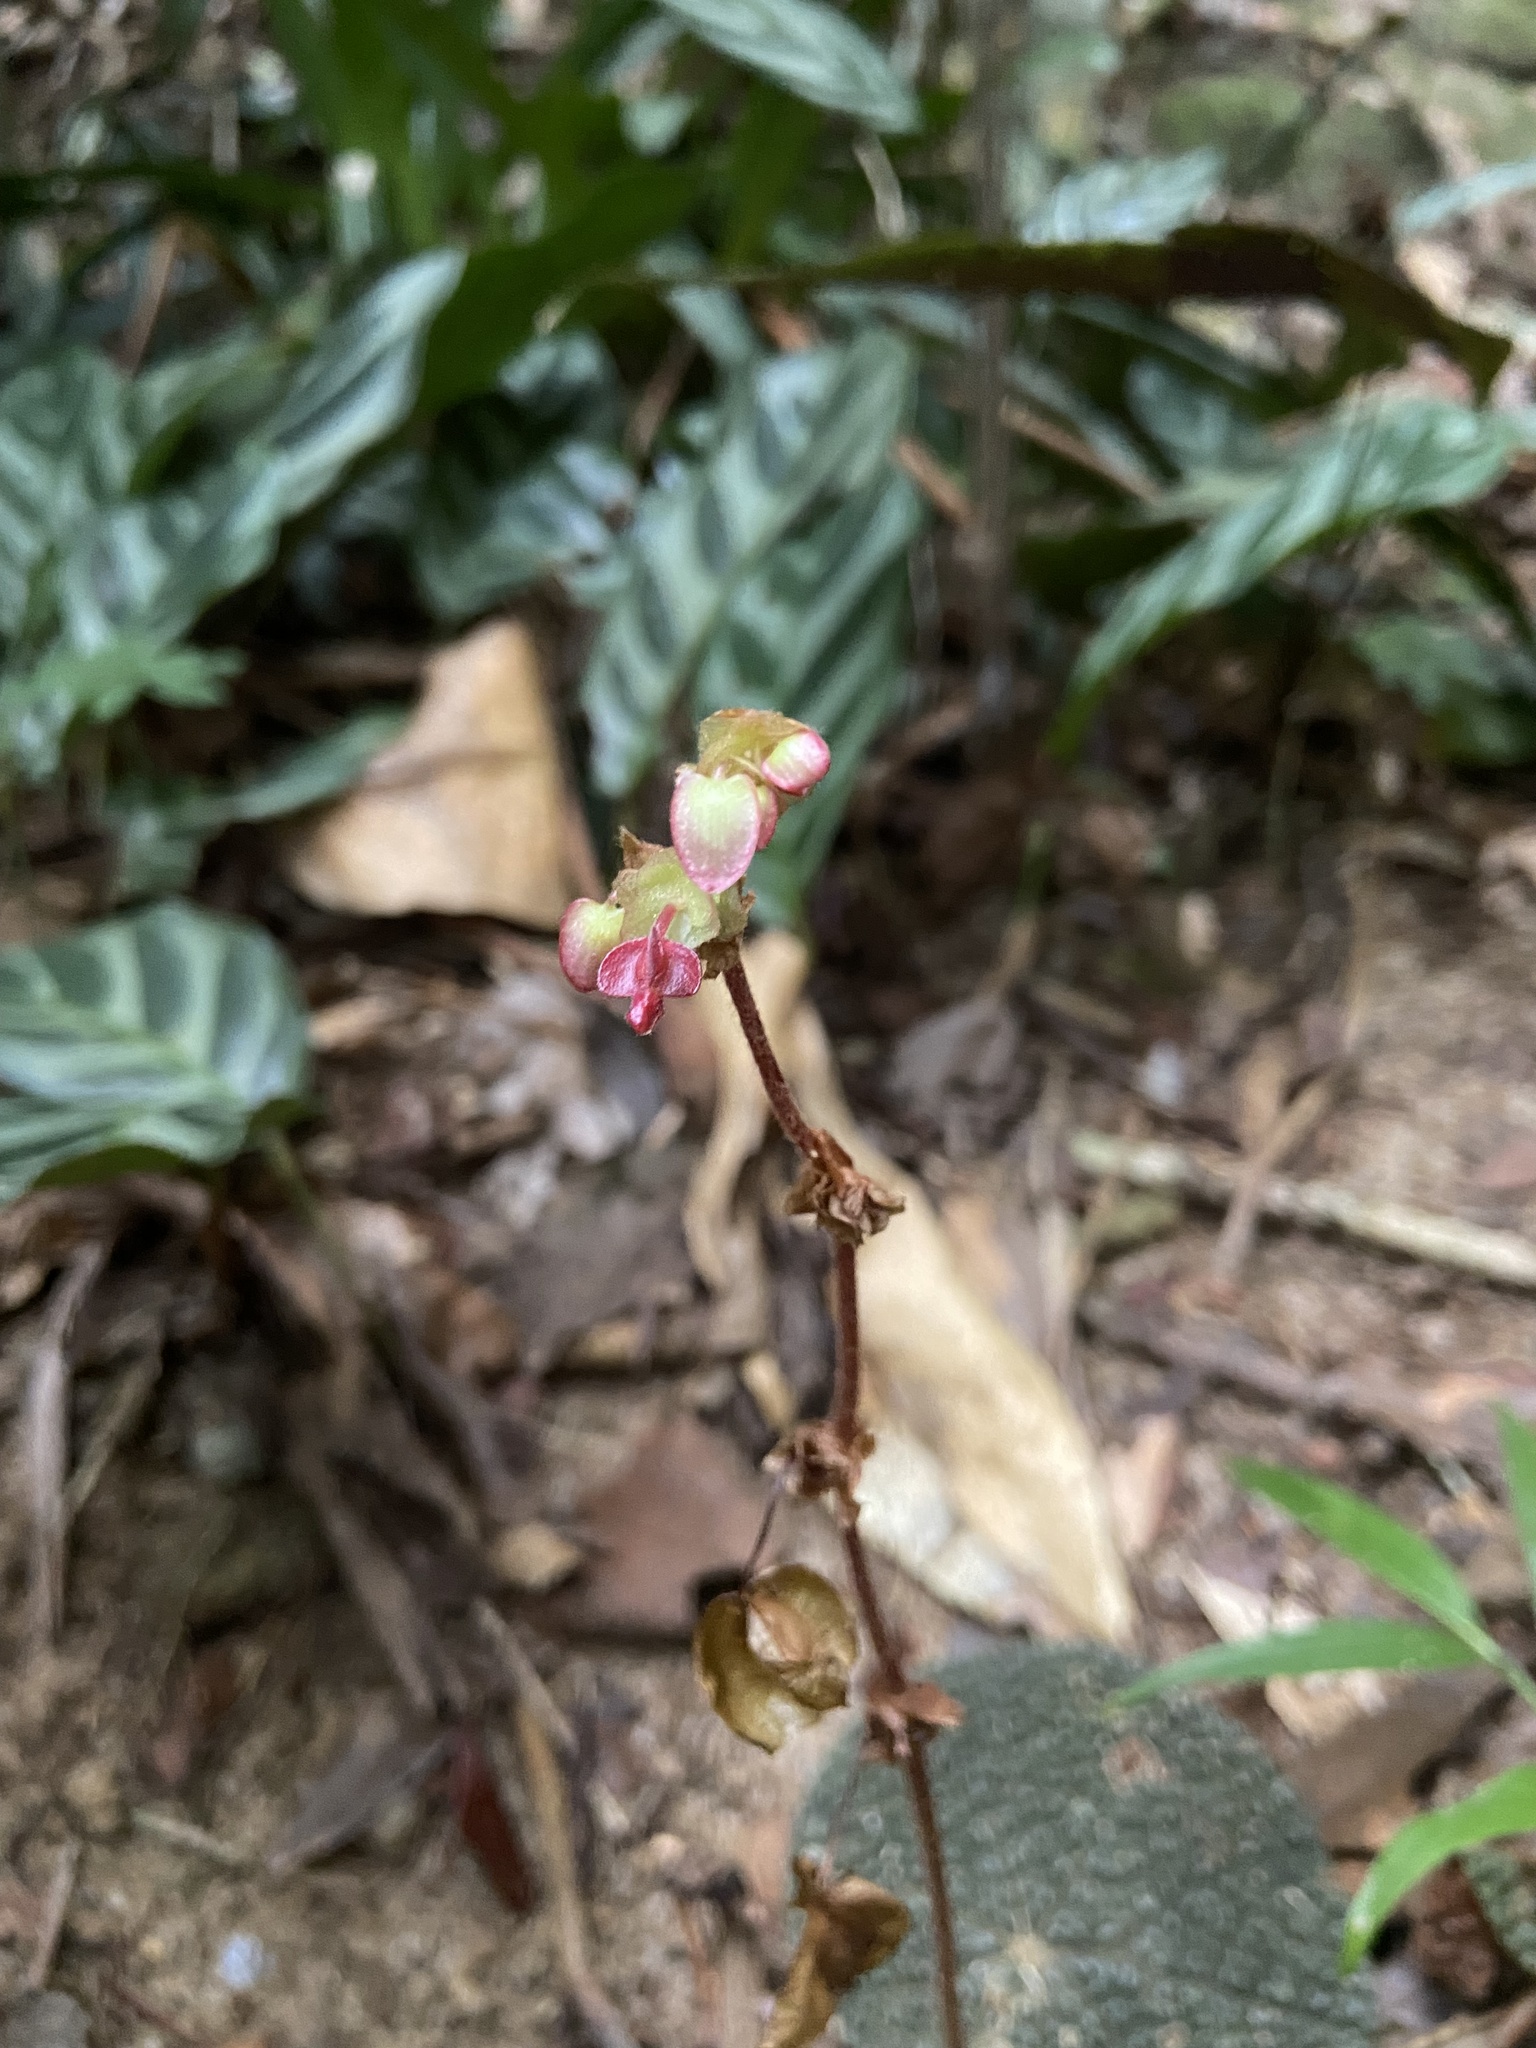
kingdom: Plantae
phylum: Tracheophyta
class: Magnoliopsida
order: Cucurbitales
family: Begoniaceae
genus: Begonia
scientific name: Begonia bullatifolia
